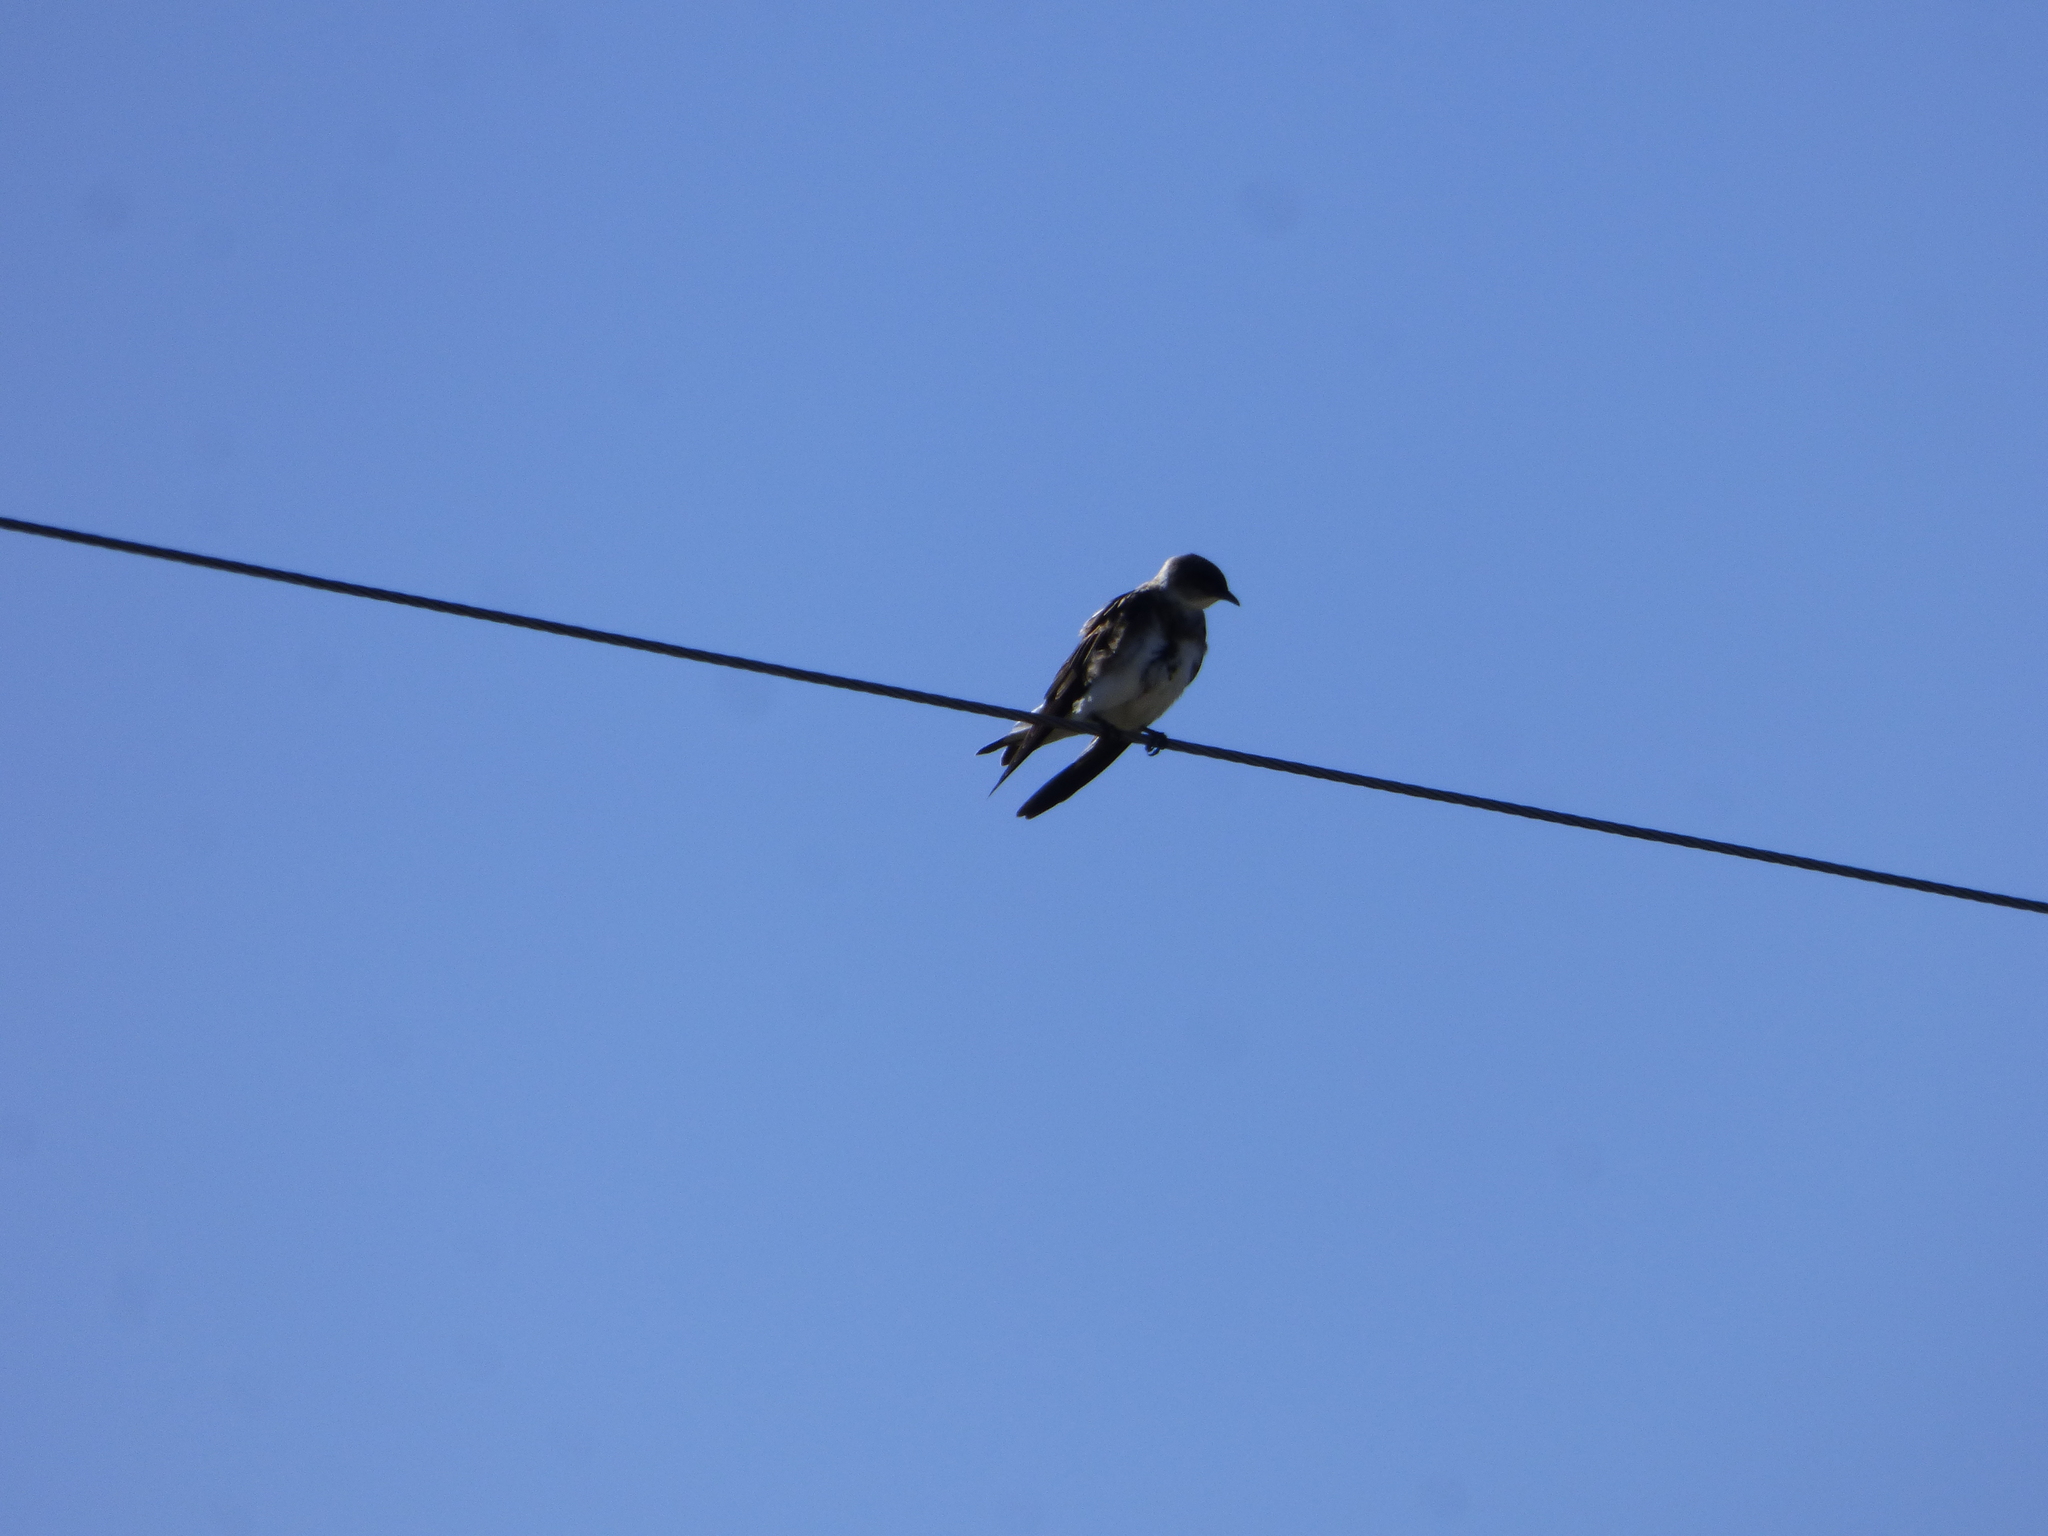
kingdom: Animalia
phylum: Chordata
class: Aves
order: Passeriformes
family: Hirundinidae
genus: Progne
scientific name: Progne tapera
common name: Brown-chested martin
